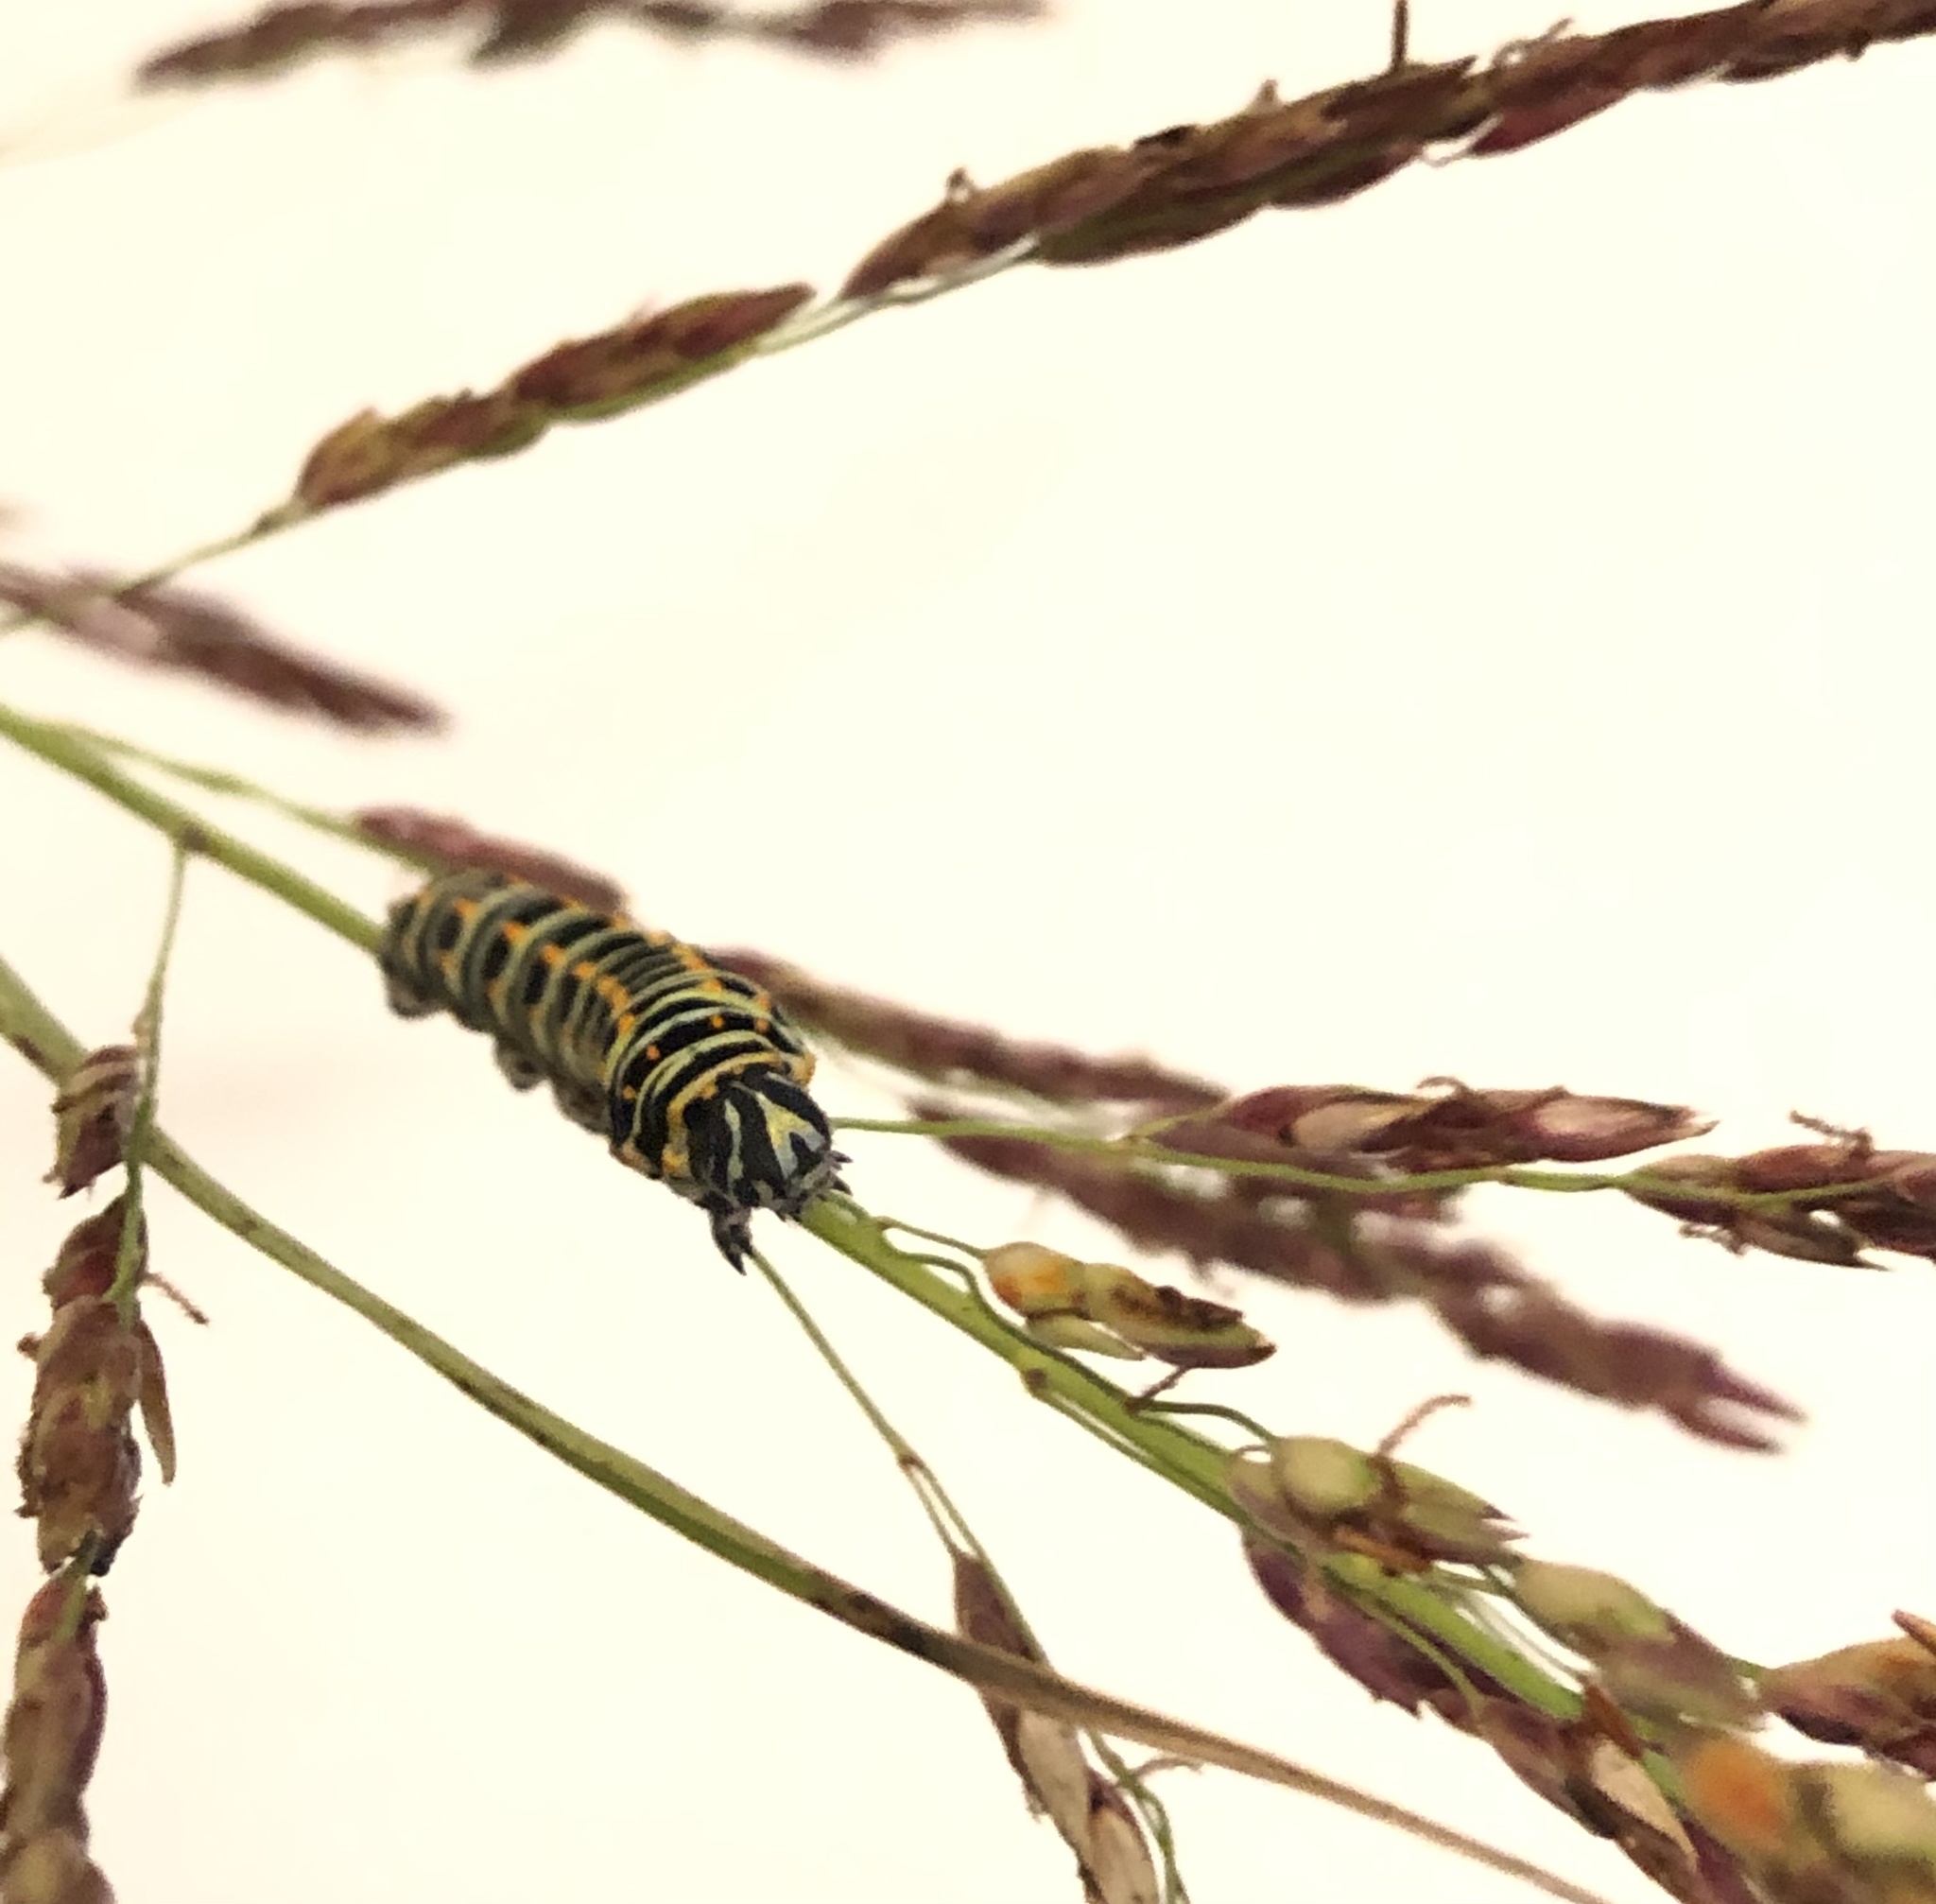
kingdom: Animalia
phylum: Arthropoda
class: Insecta
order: Lepidoptera
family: Papilionidae
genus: Papilio
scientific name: Papilio machaon
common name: Swallowtail
